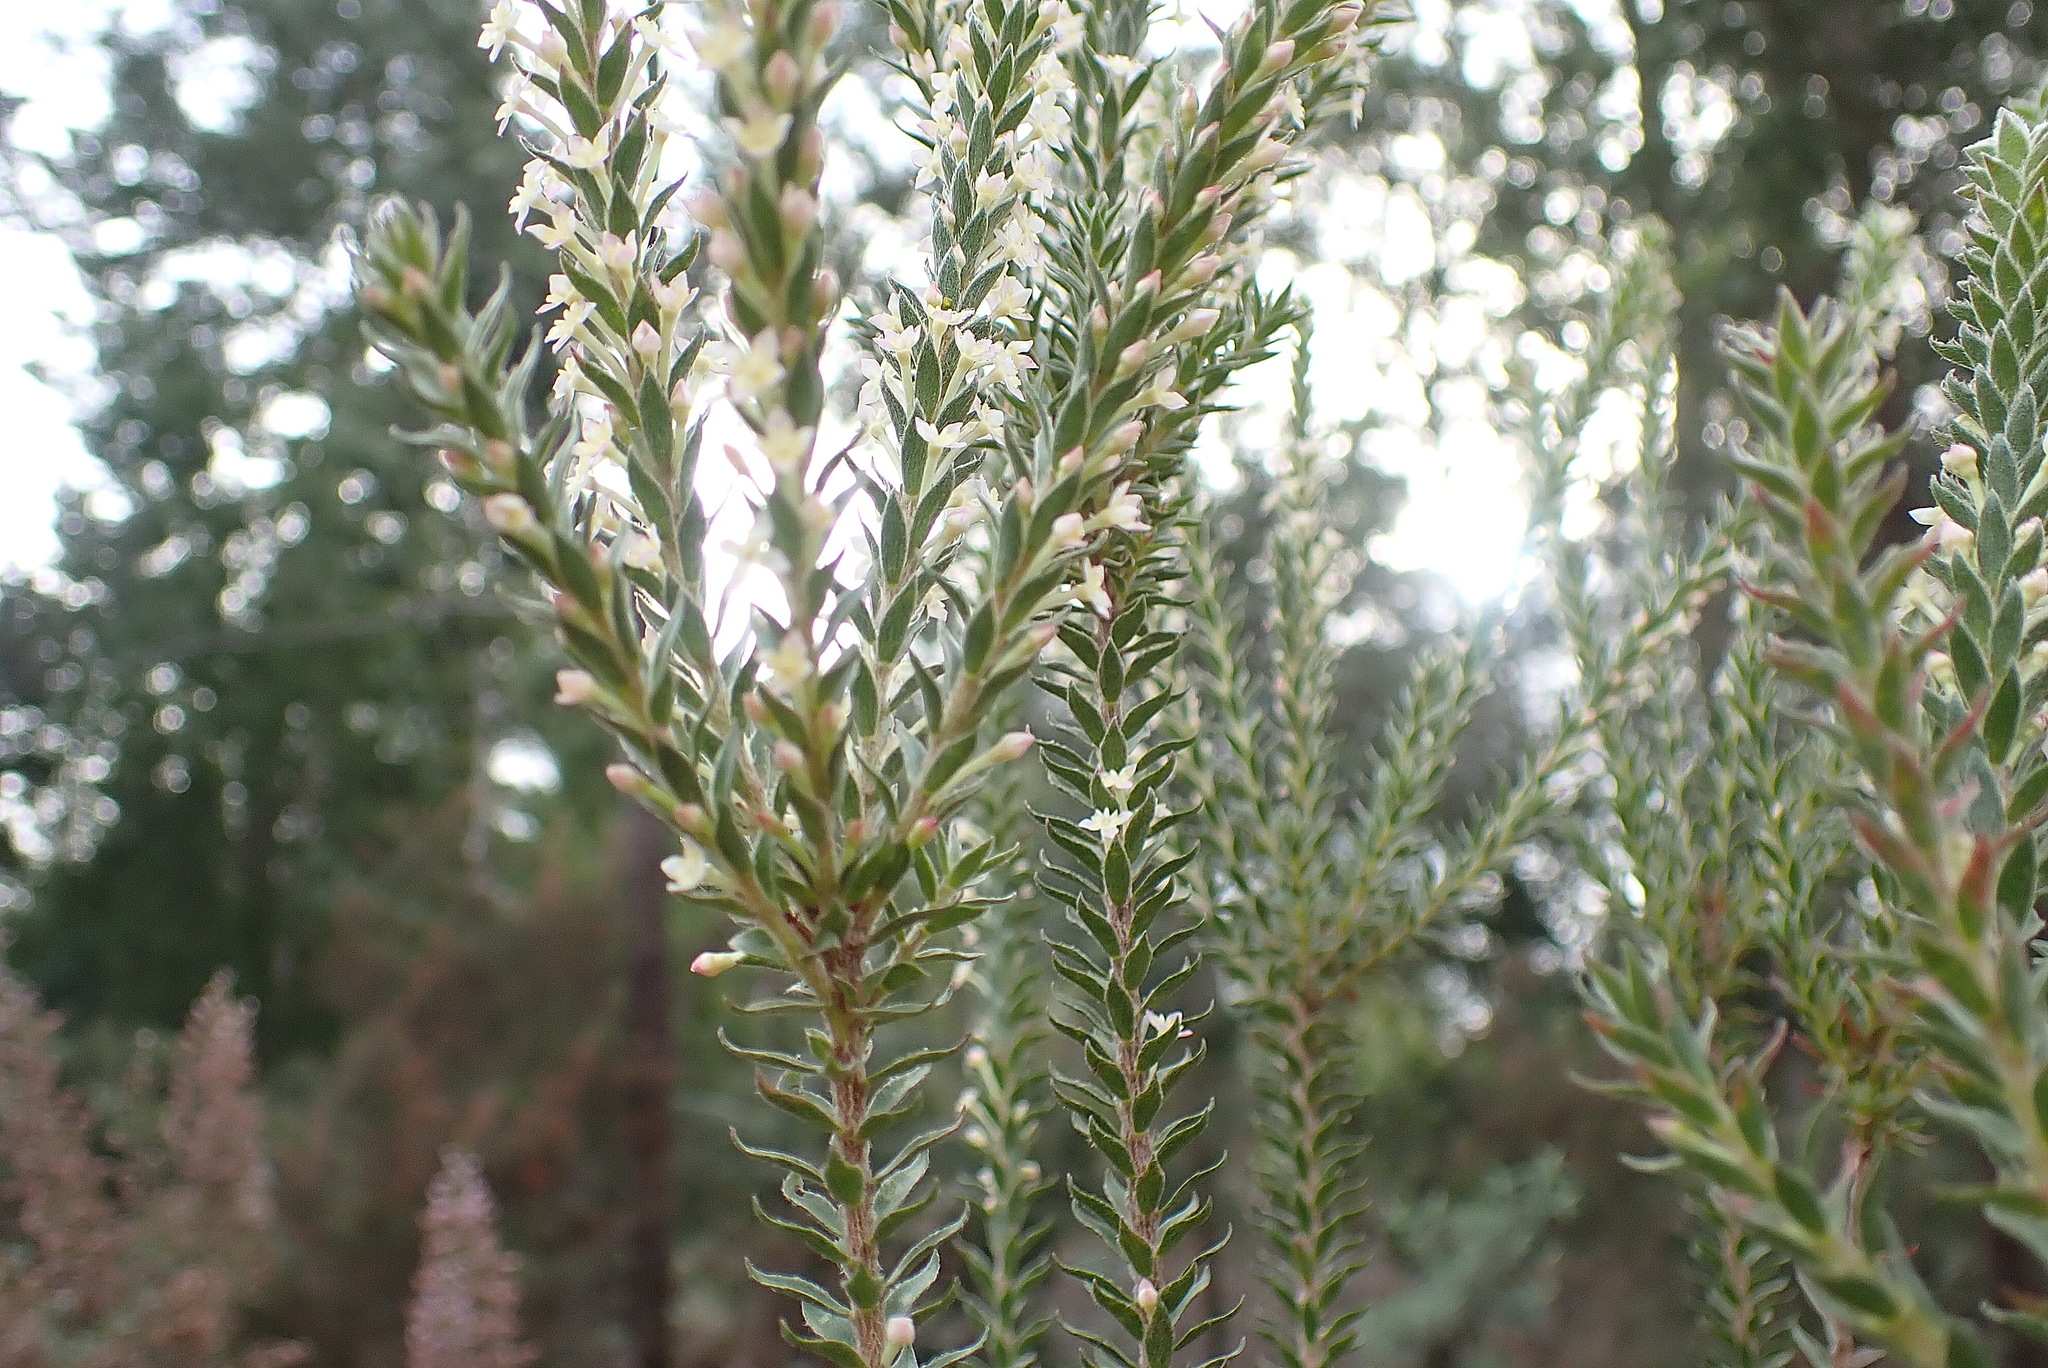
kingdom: Plantae
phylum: Tracheophyta
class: Magnoliopsida
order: Malvales
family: Thymelaeaceae
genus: Struthiola
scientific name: Struthiola hirsuta
